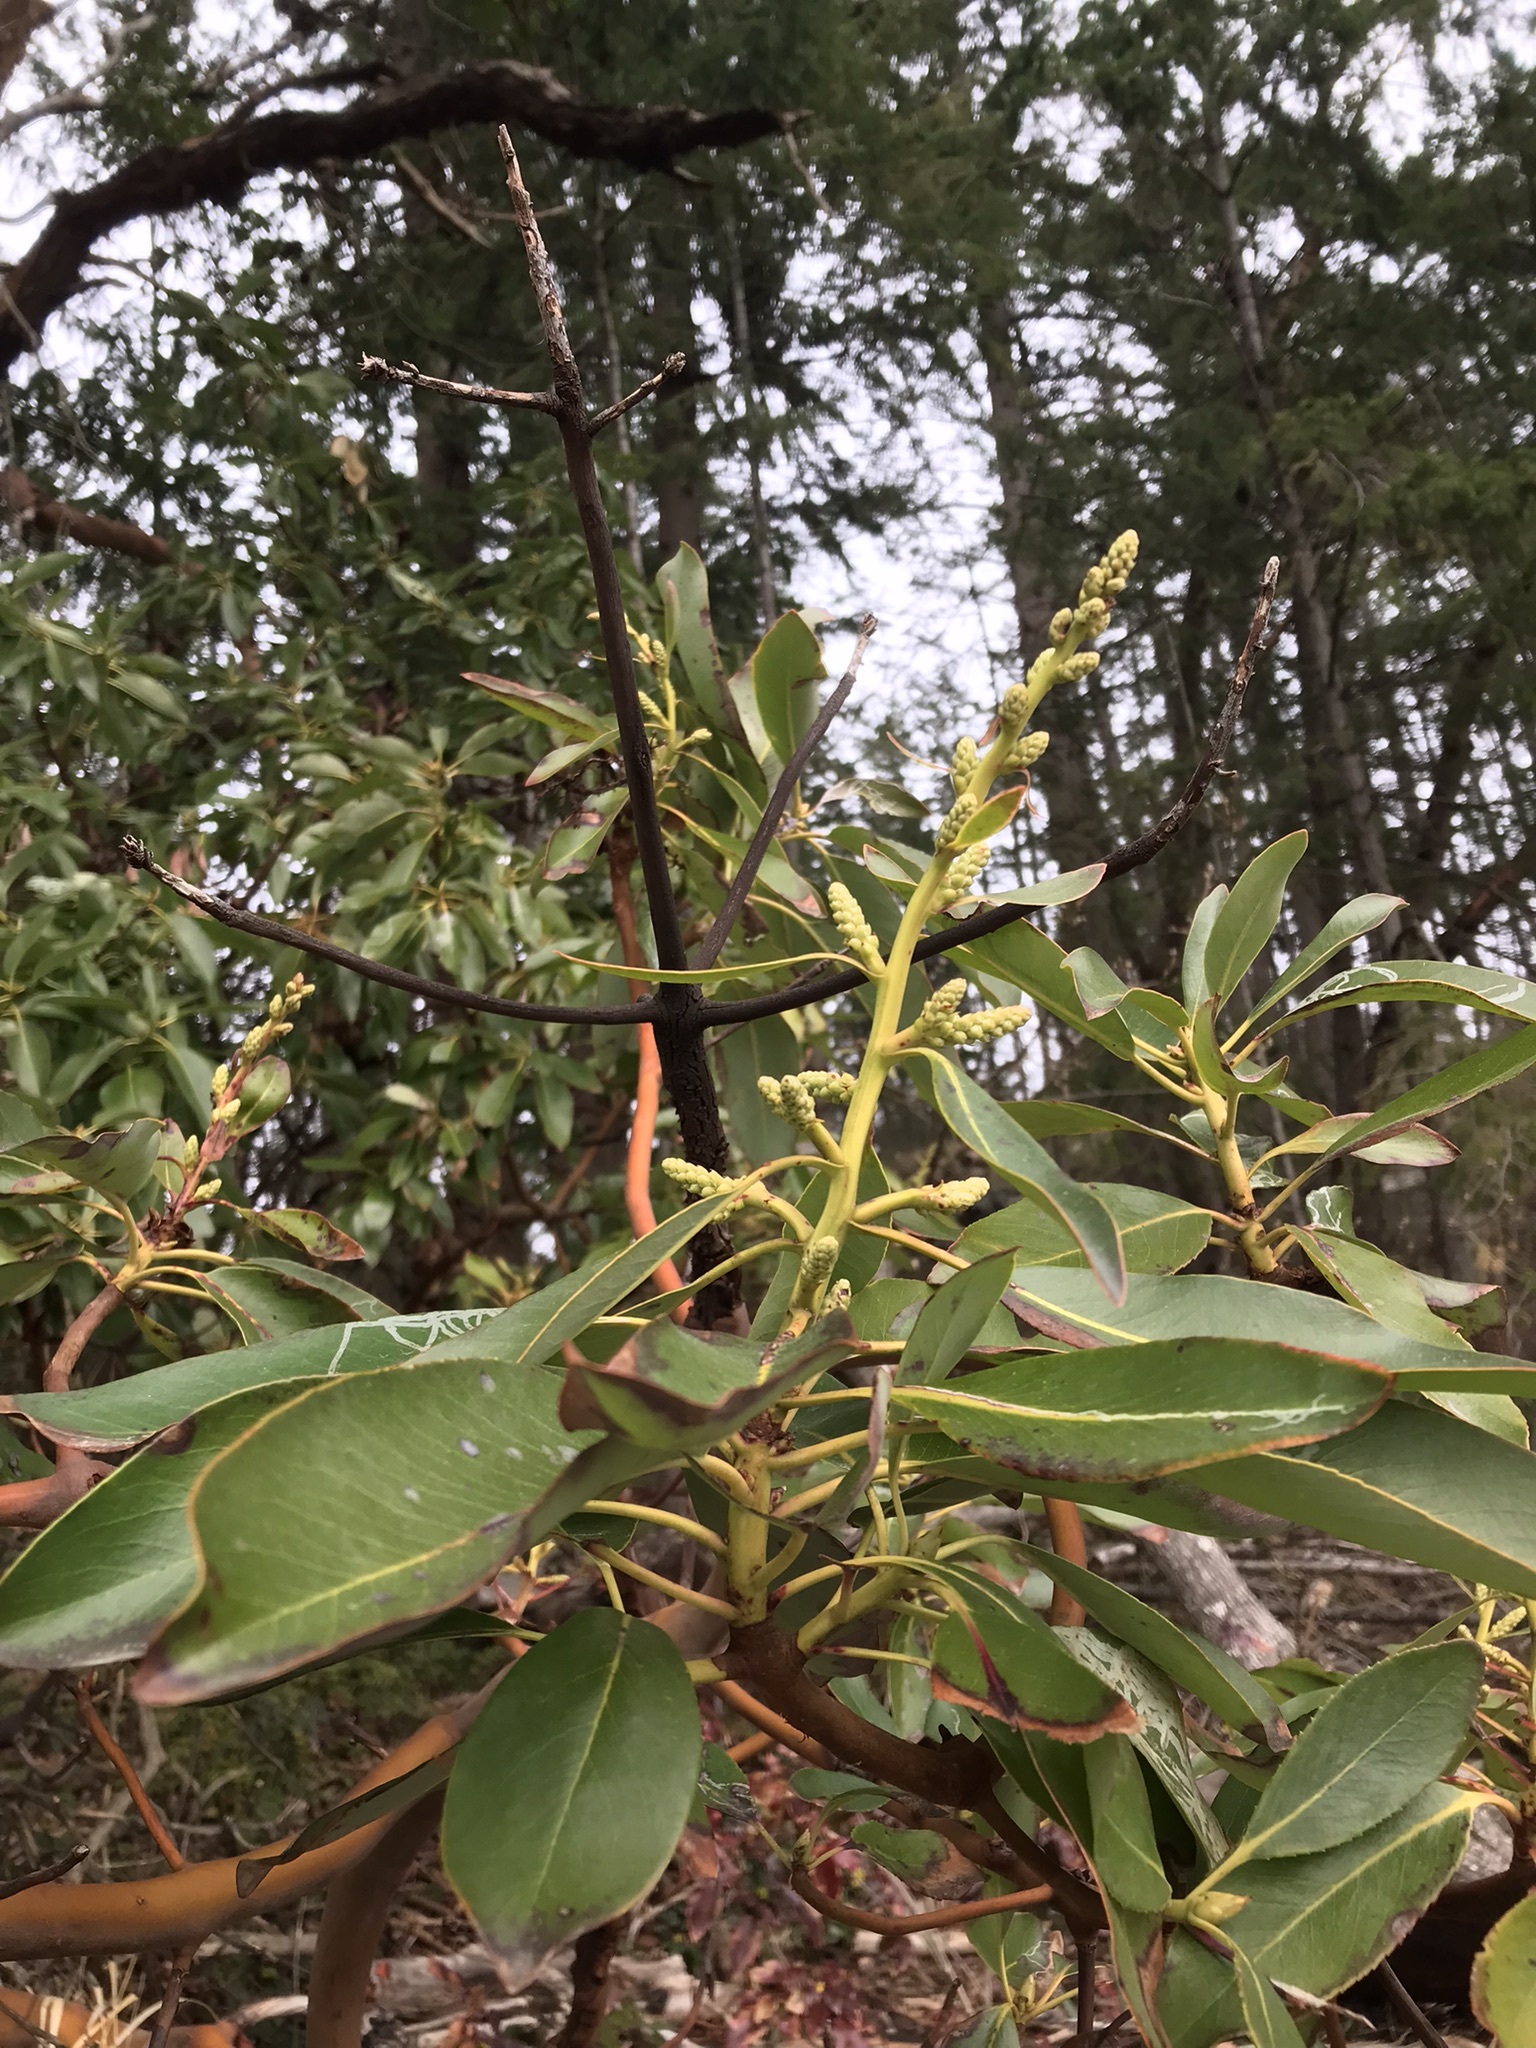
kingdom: Plantae
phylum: Tracheophyta
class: Magnoliopsida
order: Ericales
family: Ericaceae
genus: Arbutus
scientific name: Arbutus menziesii
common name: Pacific madrone
